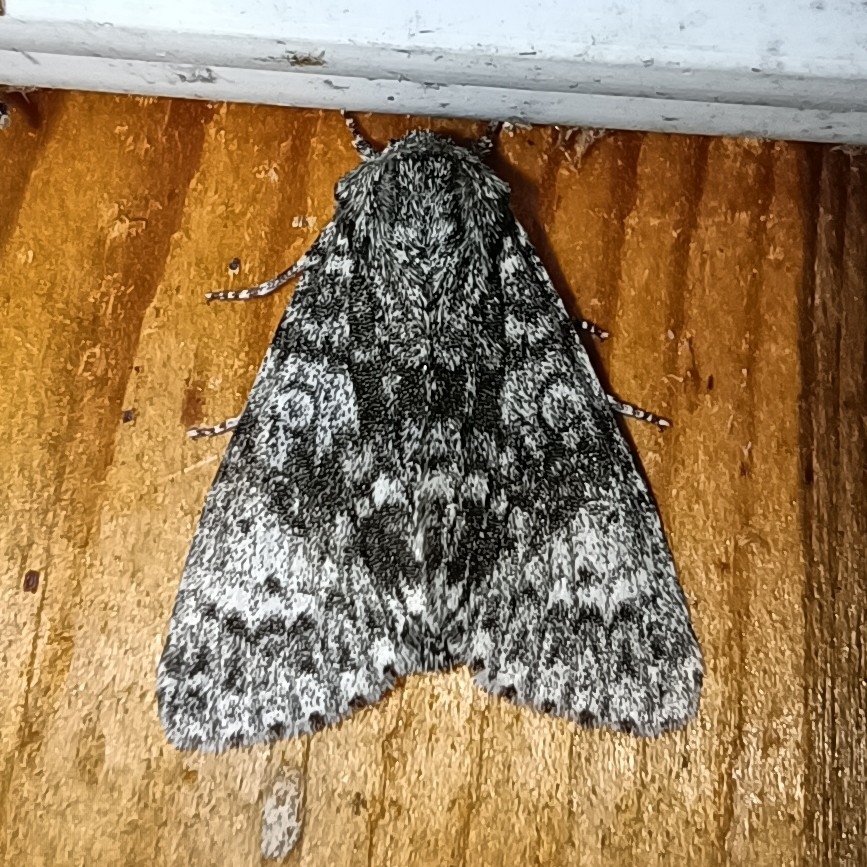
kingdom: Animalia
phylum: Arthropoda
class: Insecta
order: Lepidoptera
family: Noctuidae
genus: Acronicta
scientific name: Acronicta megacephala
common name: Poplar grey
